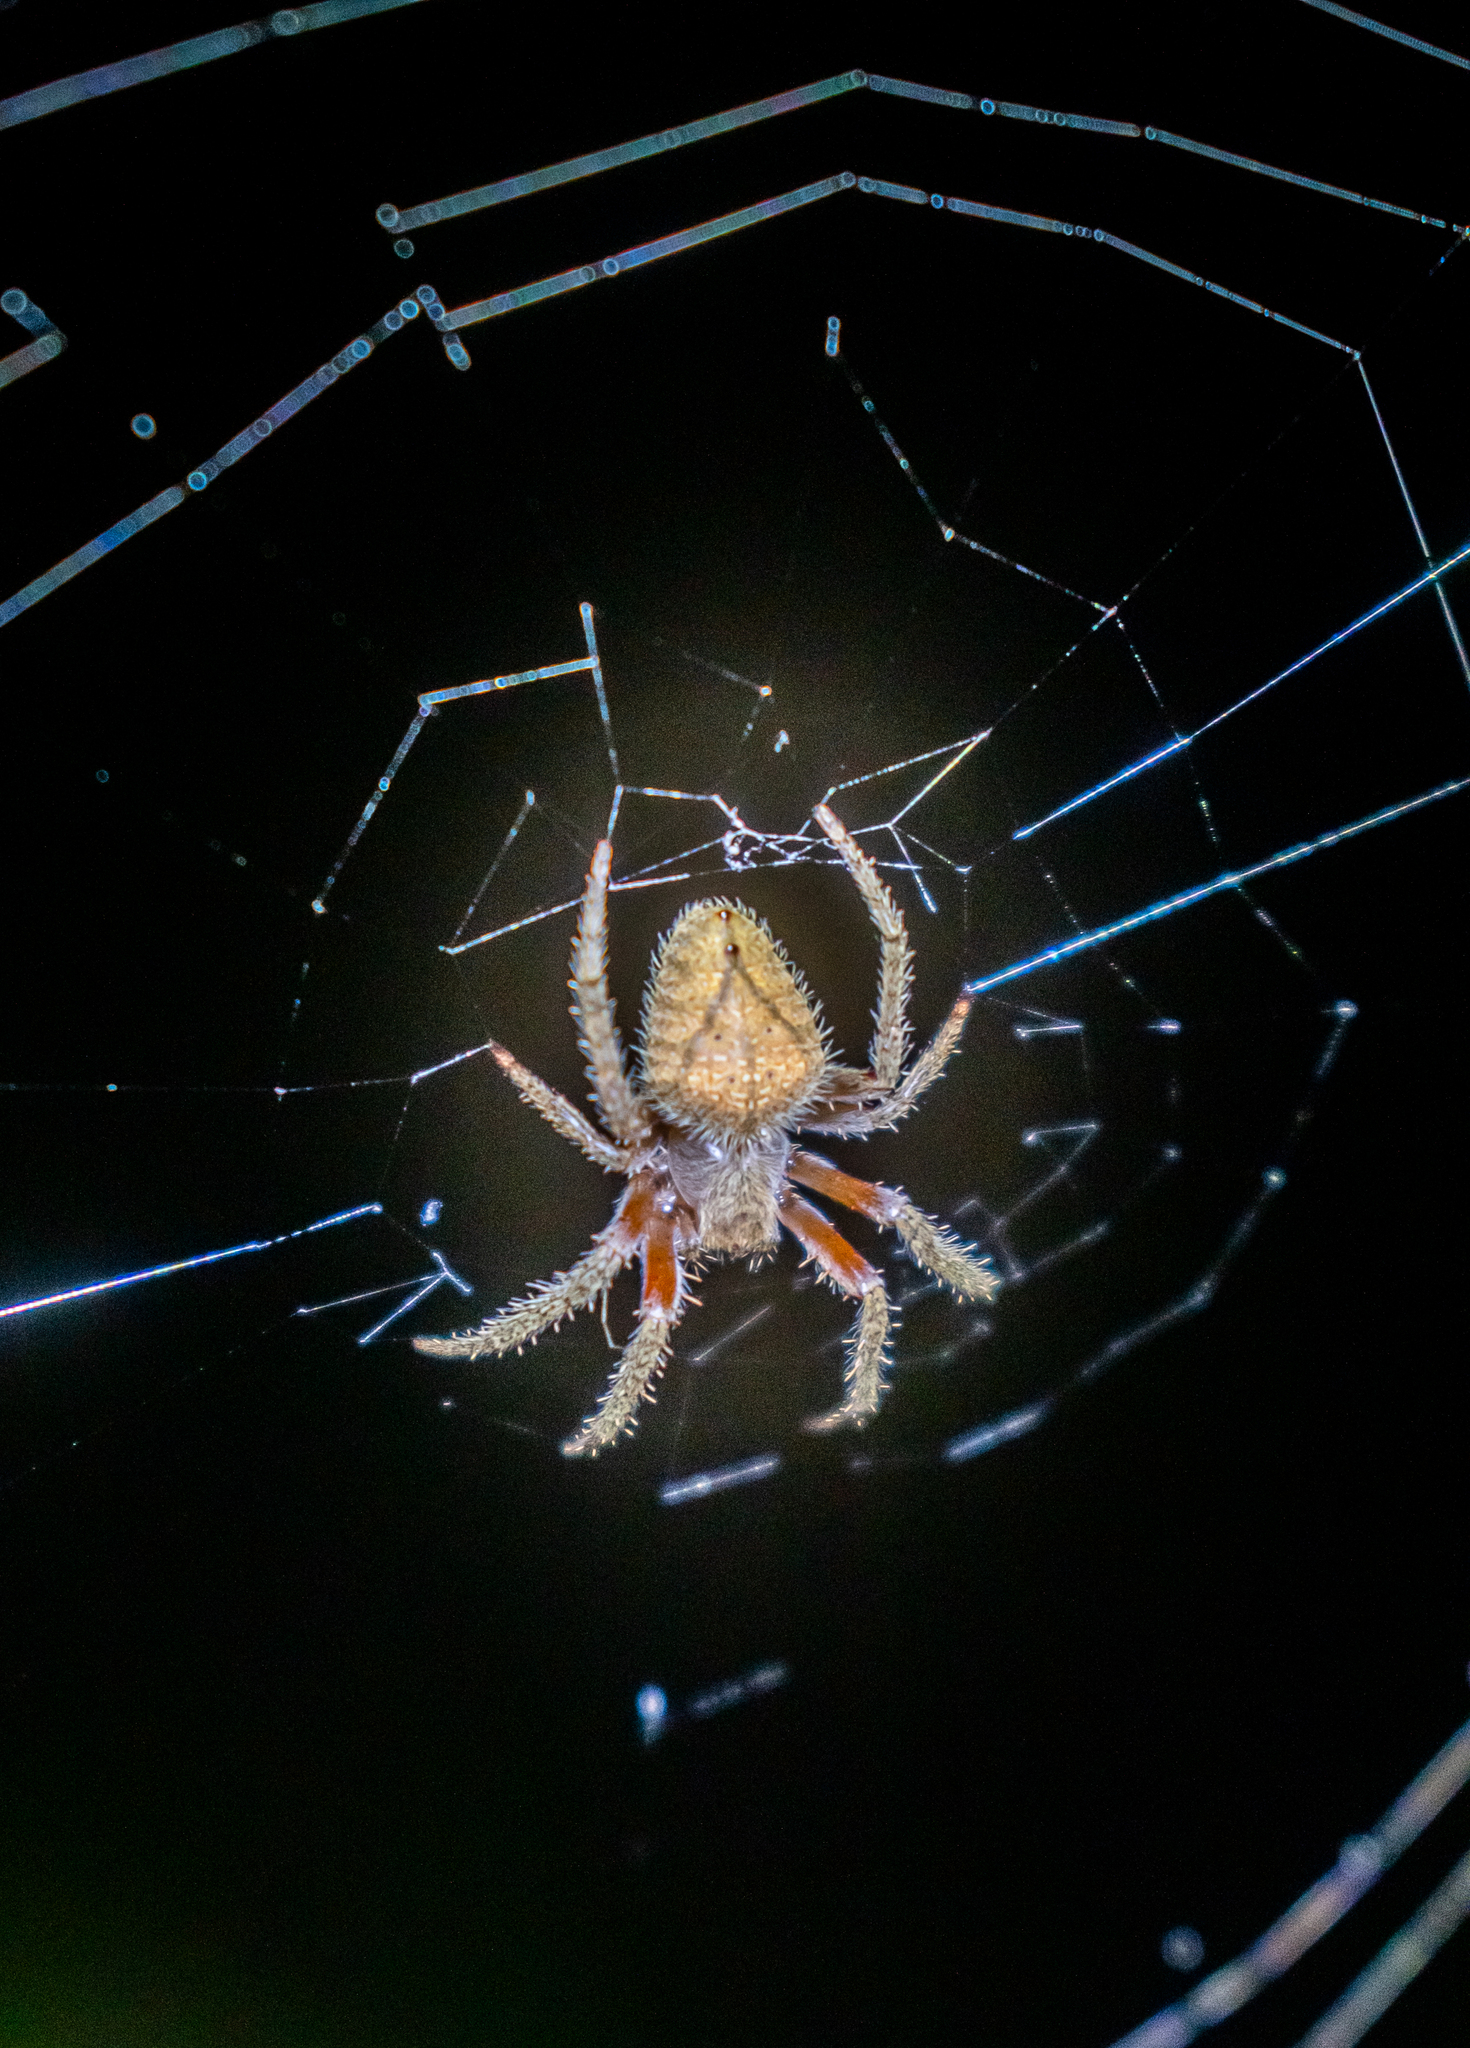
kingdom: Animalia
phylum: Arthropoda
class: Arachnida
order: Araneae
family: Araneidae
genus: Eriophora
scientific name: Eriophora edax
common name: Orb weavers
